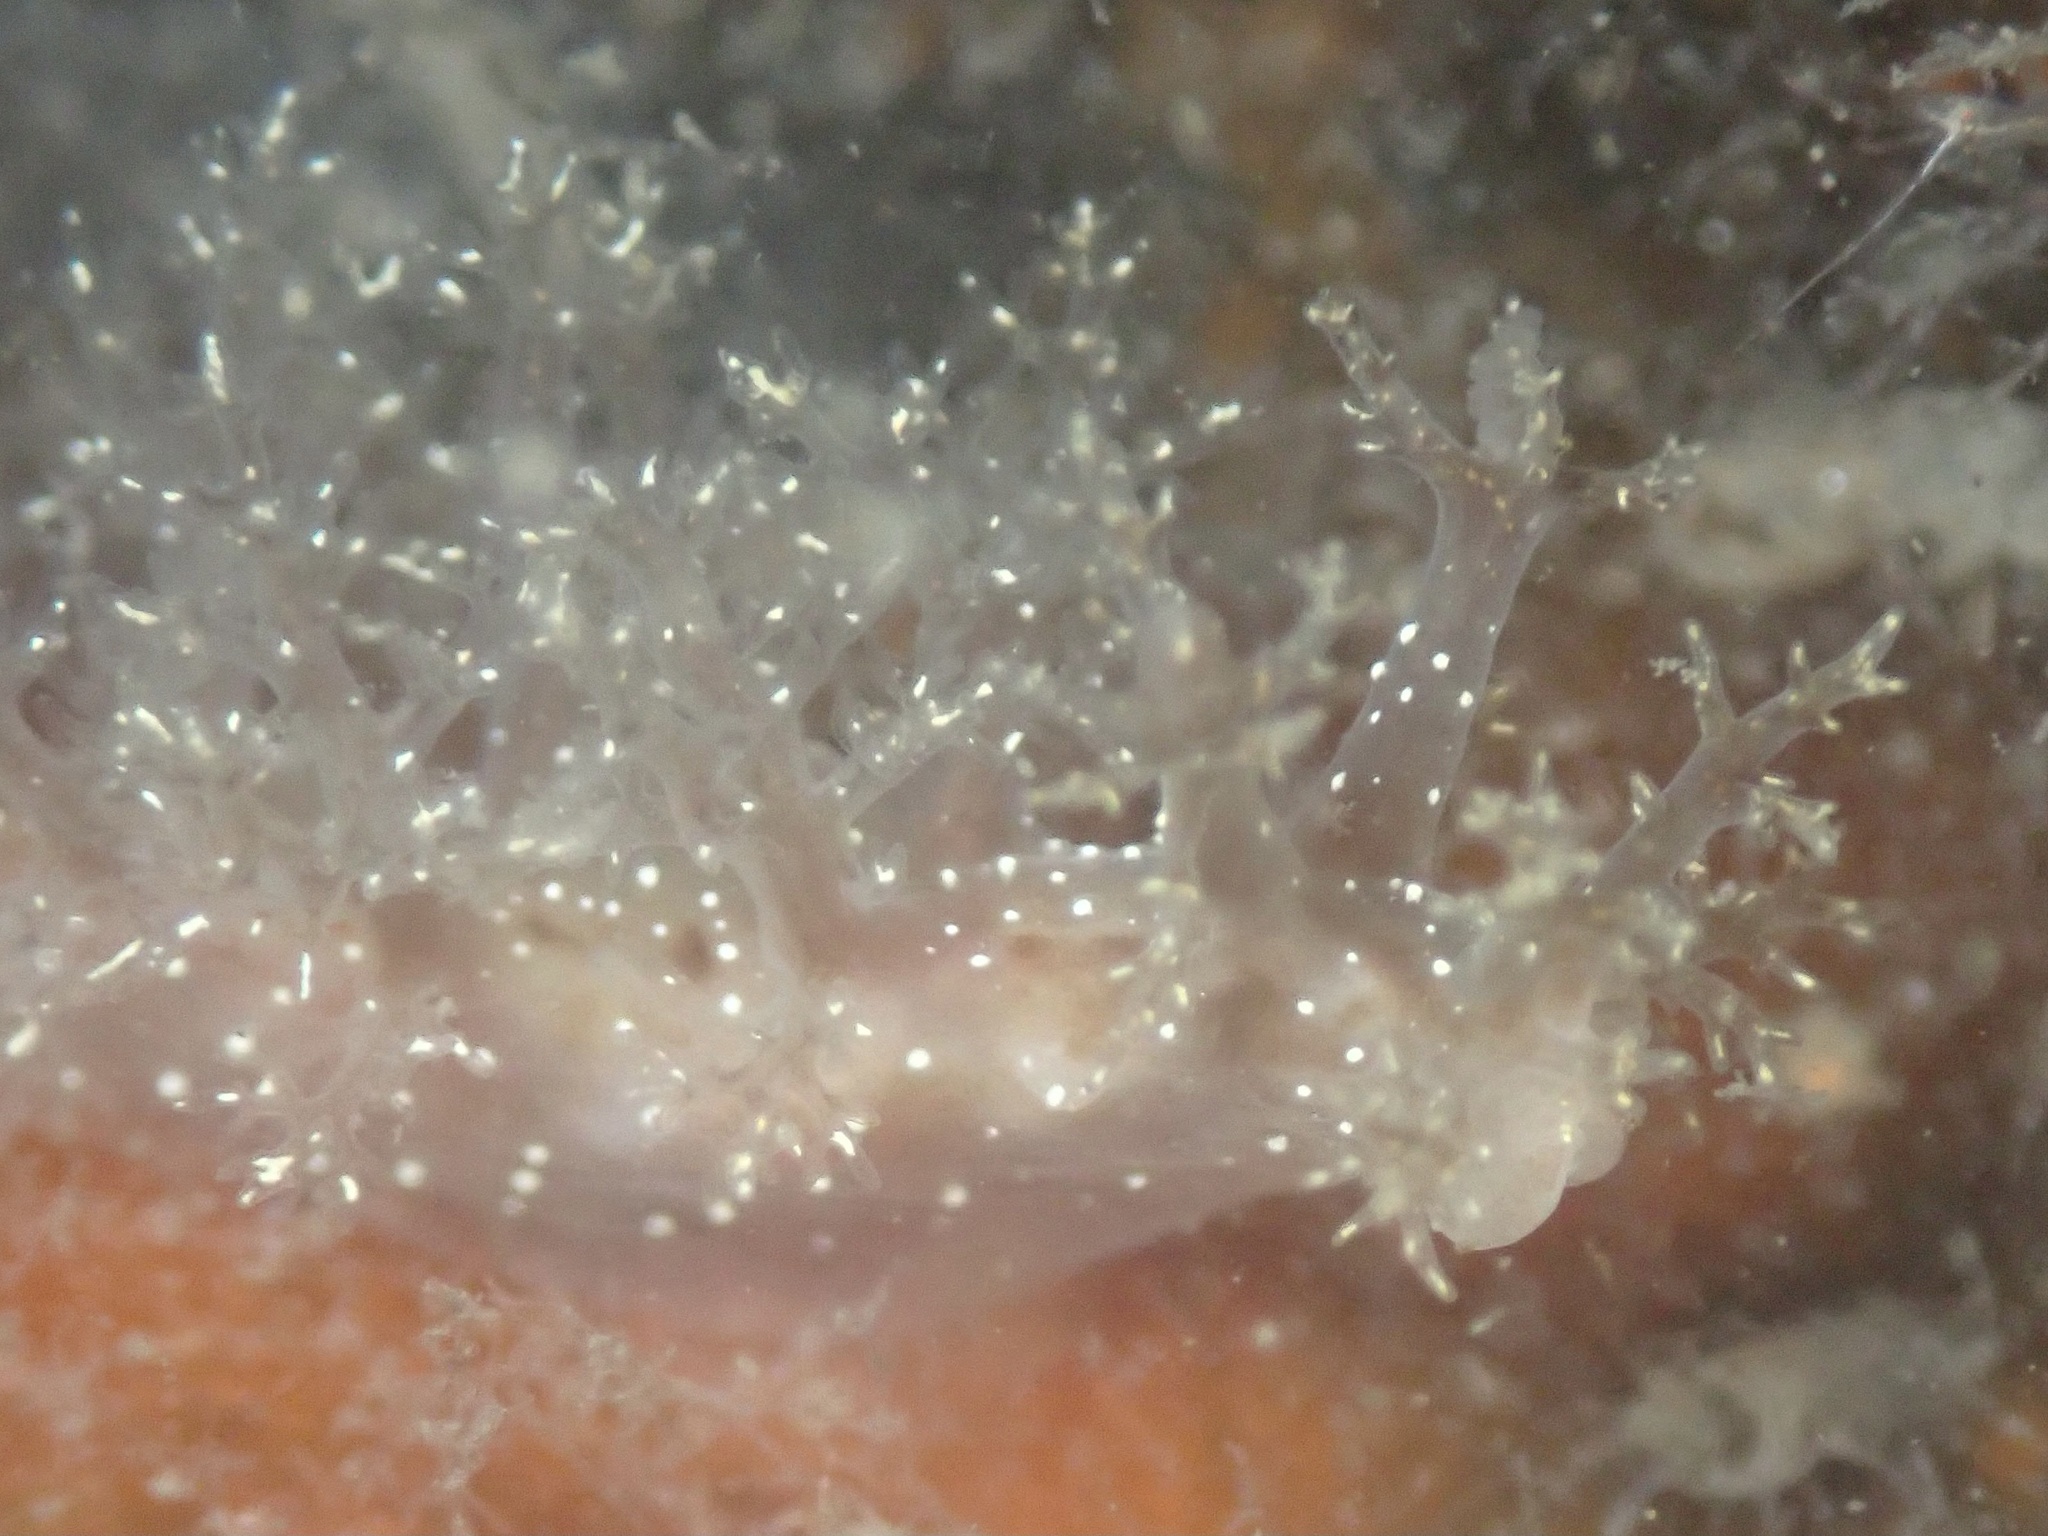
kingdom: Animalia
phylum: Mollusca
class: Gastropoda
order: Nudibranchia
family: Dendronotidae
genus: Dendronotus
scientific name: Dendronotus venustus
